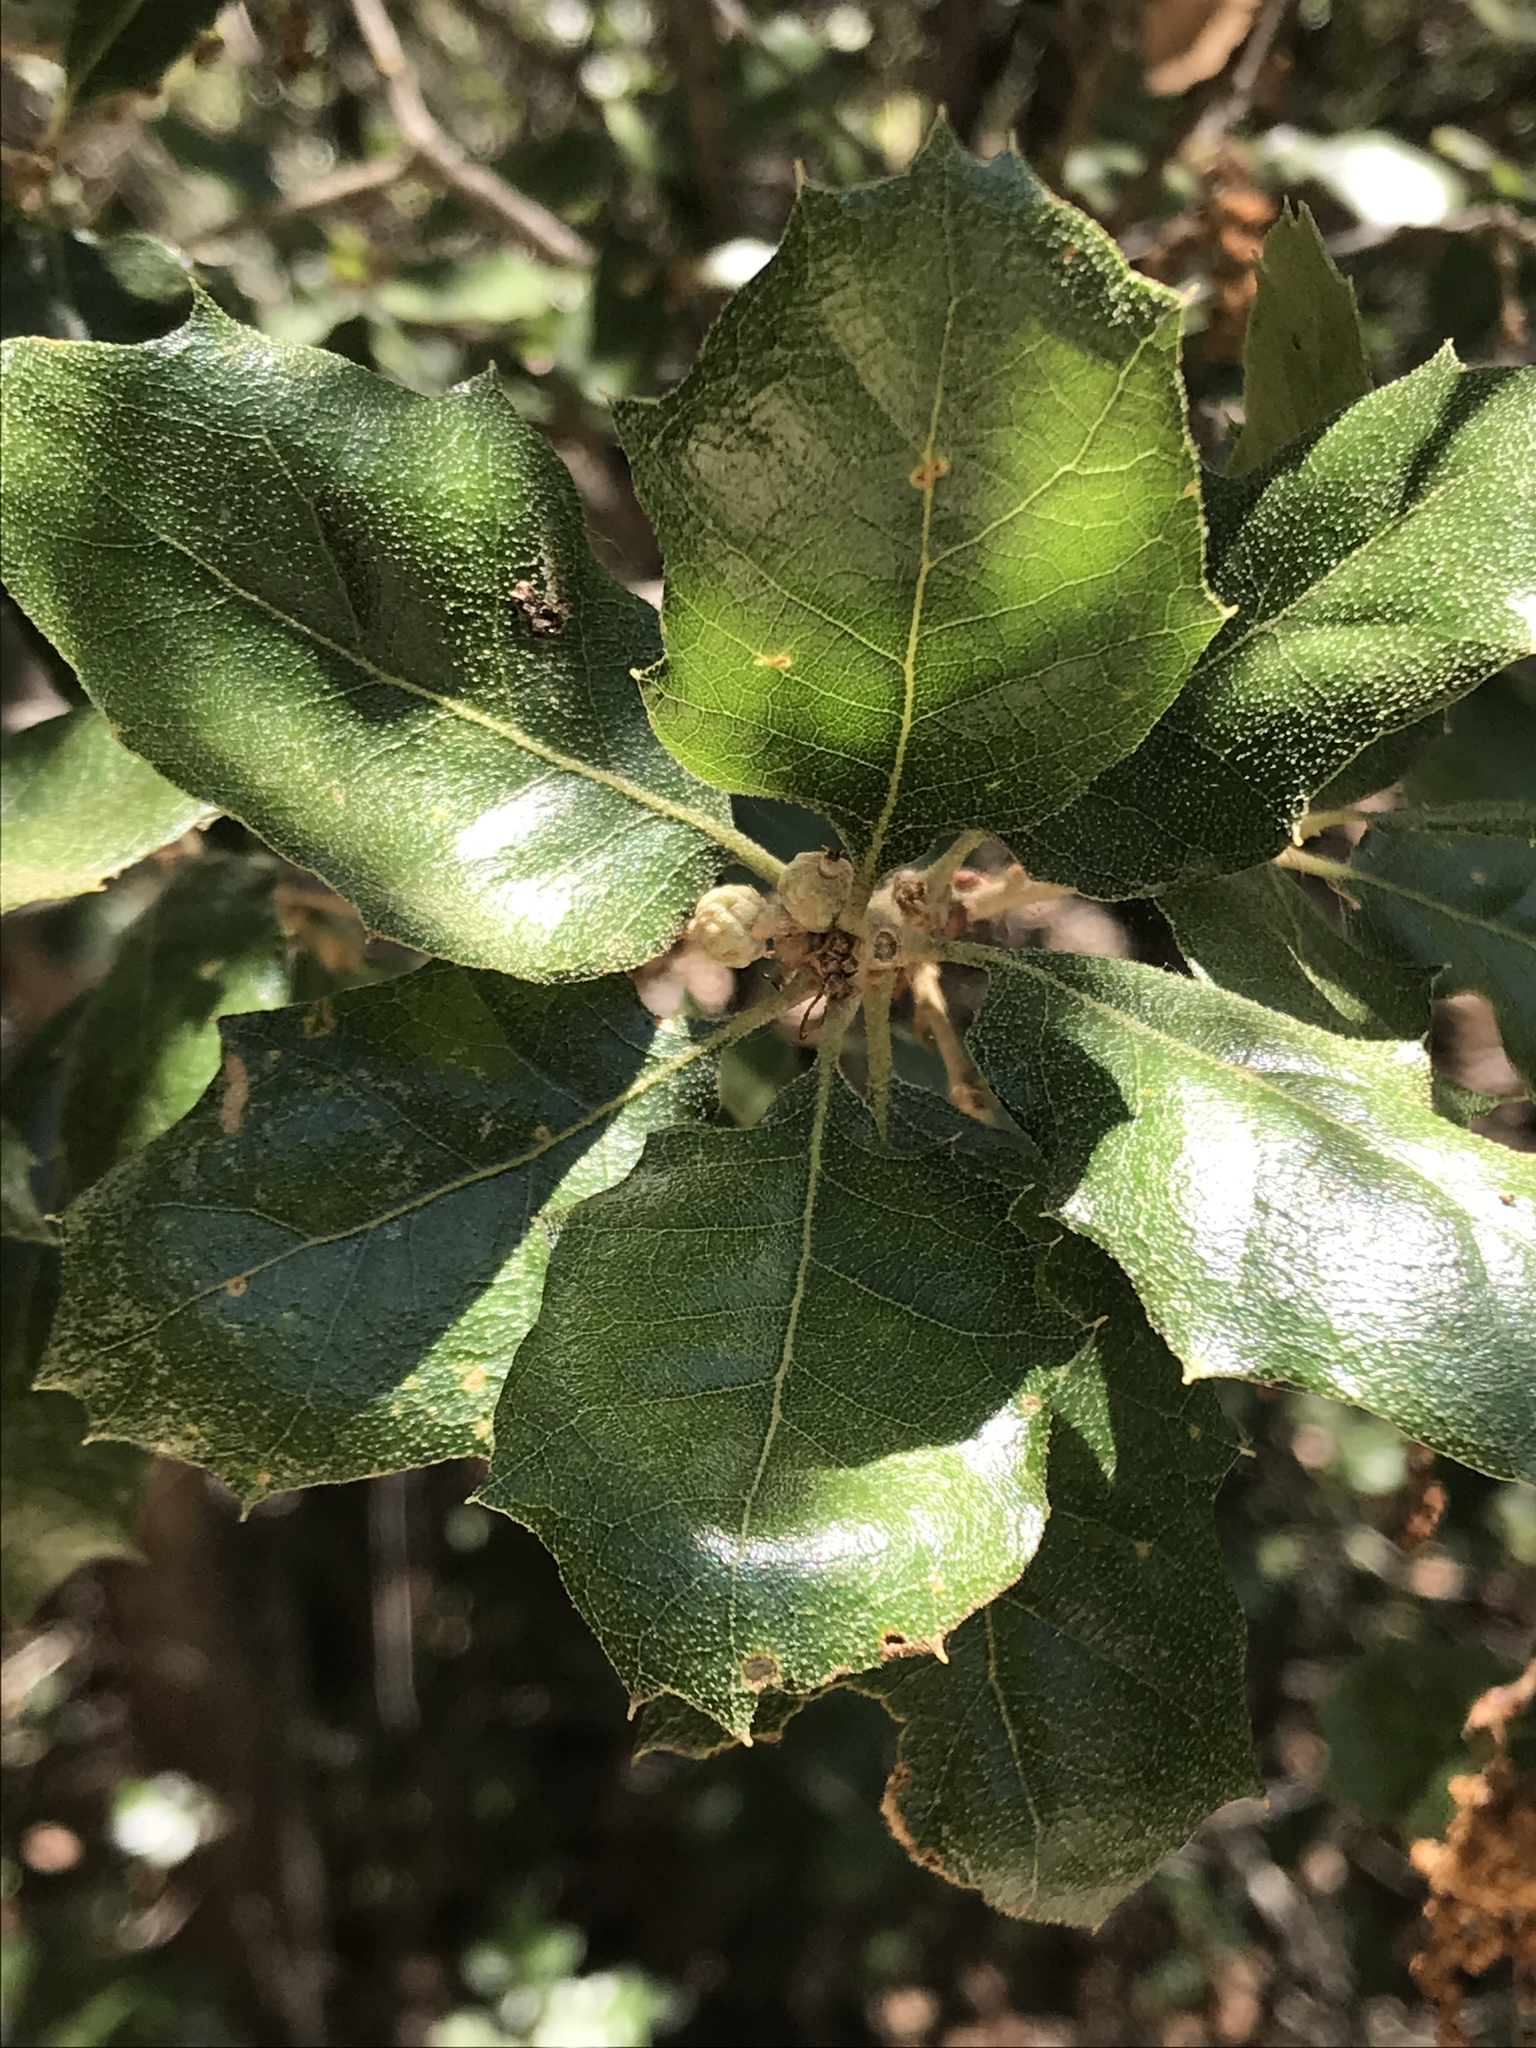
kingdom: Plantae
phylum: Tracheophyta
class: Magnoliopsida
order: Fagales
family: Fagaceae
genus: Quercus
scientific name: Quercus invaginata
